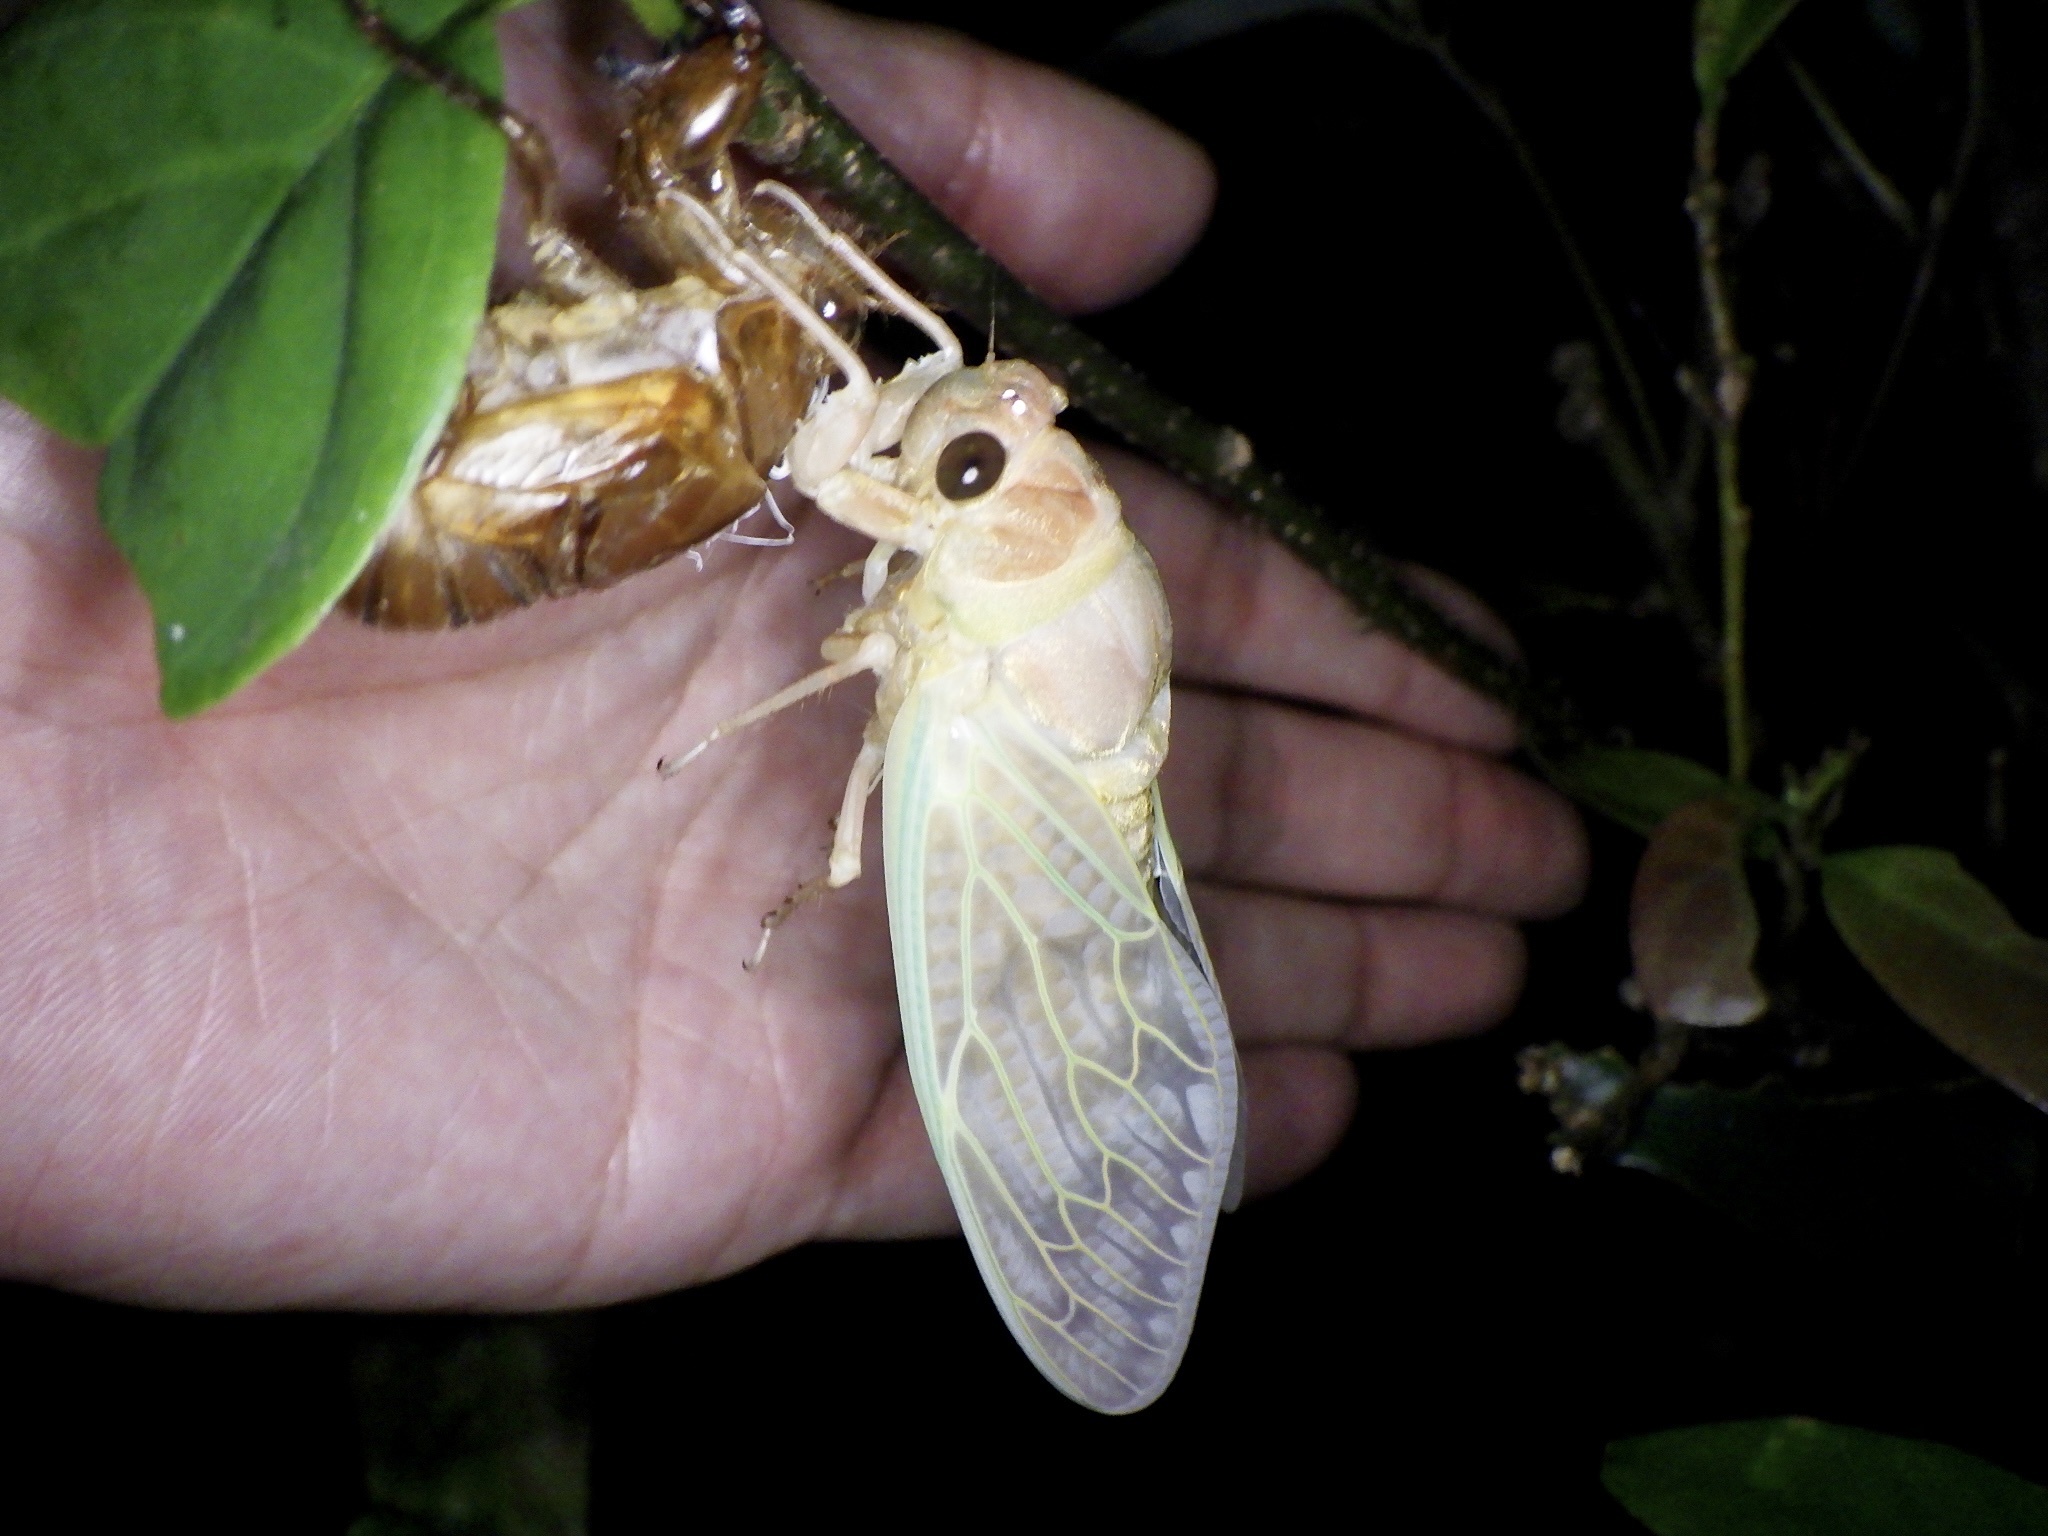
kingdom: Animalia
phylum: Arthropoda
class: Insecta
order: Hemiptera
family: Cicadidae
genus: Graptopsaltria
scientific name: Graptopsaltria nigrofuscata
